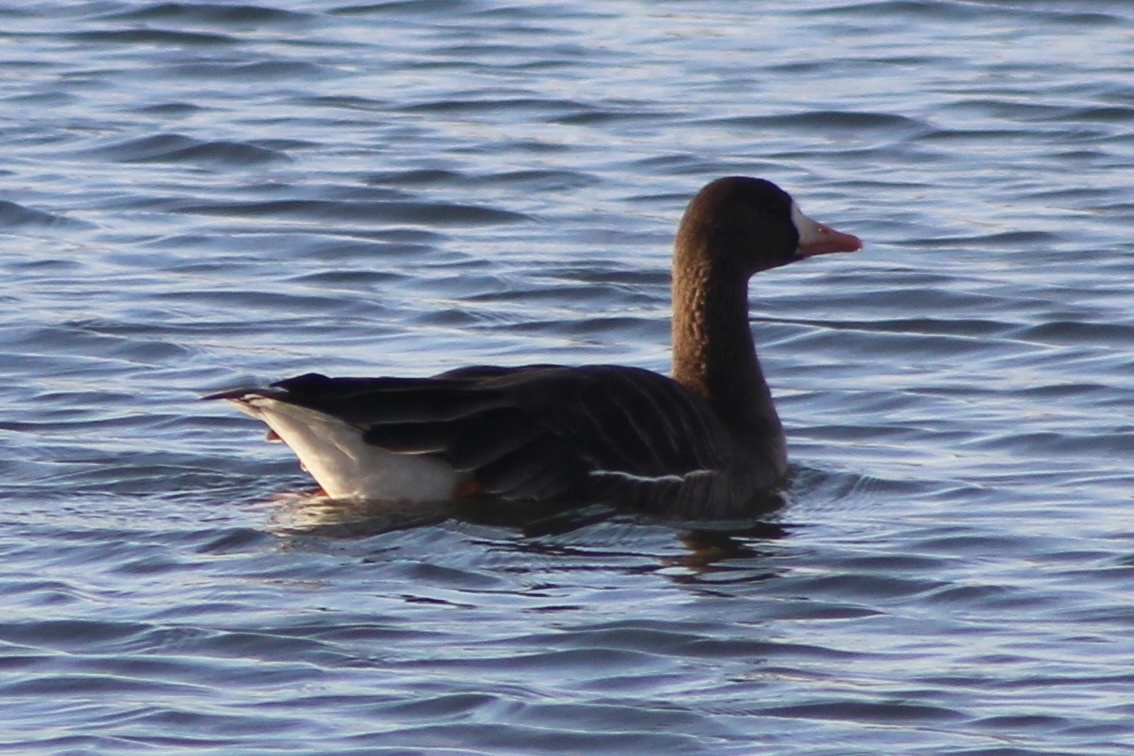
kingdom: Animalia
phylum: Chordata
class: Aves
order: Anseriformes
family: Anatidae
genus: Anser
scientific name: Anser albifrons
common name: Greater white-fronted goose
